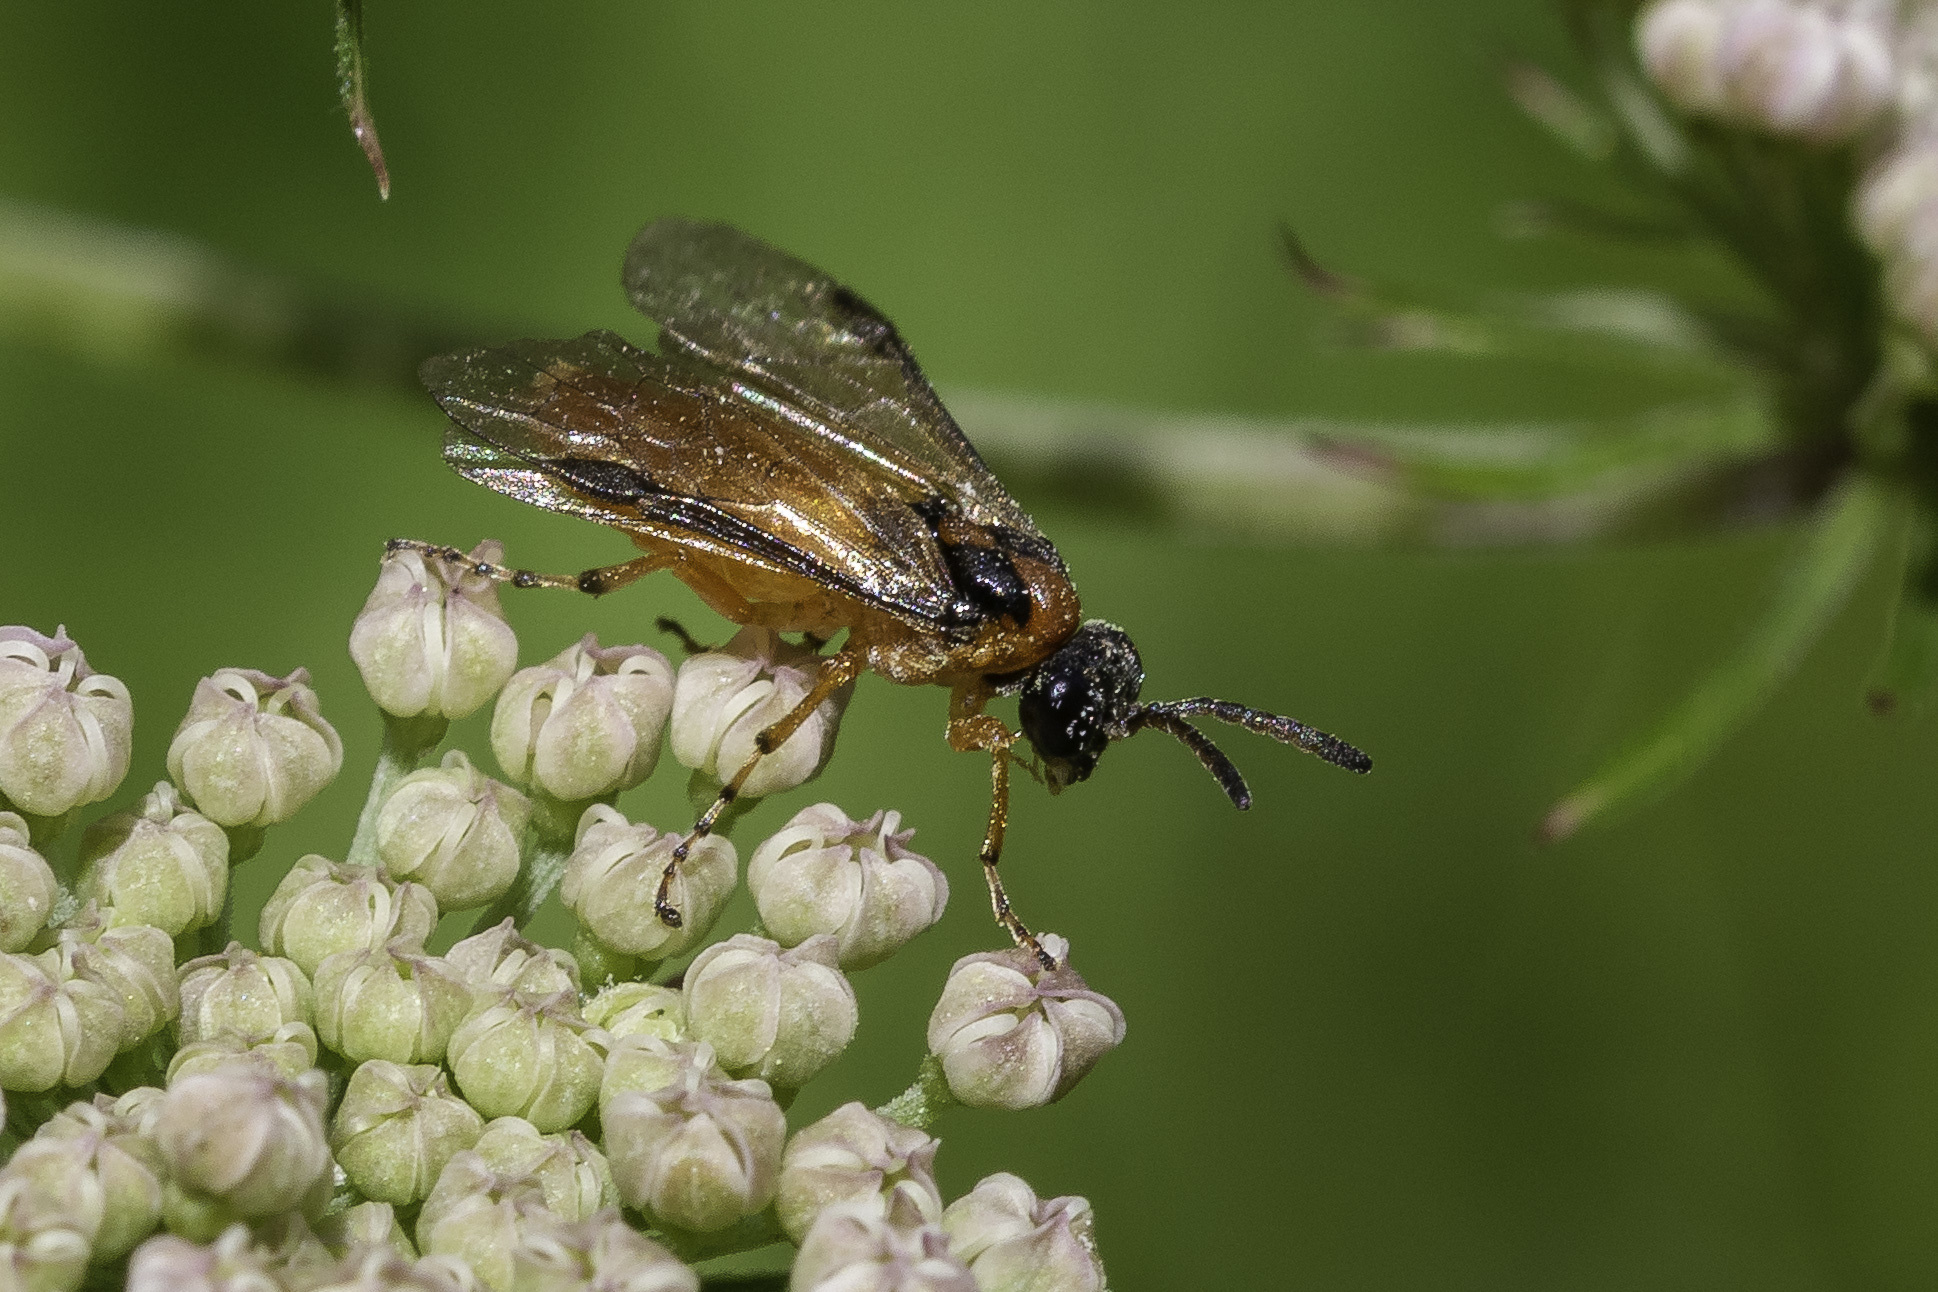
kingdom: Animalia
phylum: Arthropoda
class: Insecta
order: Hymenoptera
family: Tenthredinidae
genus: Athalia
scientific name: Athalia rosae
